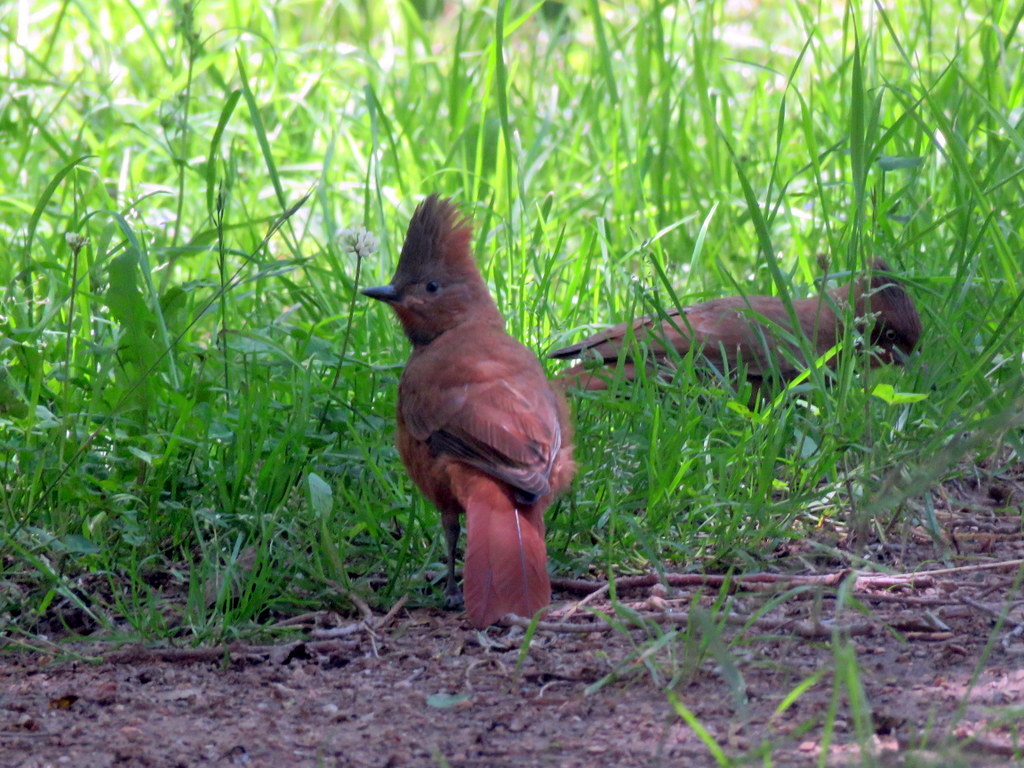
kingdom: Animalia
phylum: Chordata
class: Aves
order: Passeriformes
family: Furnariidae
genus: Pseudoseisura
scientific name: Pseudoseisura lophotes
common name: Brown cacholote
